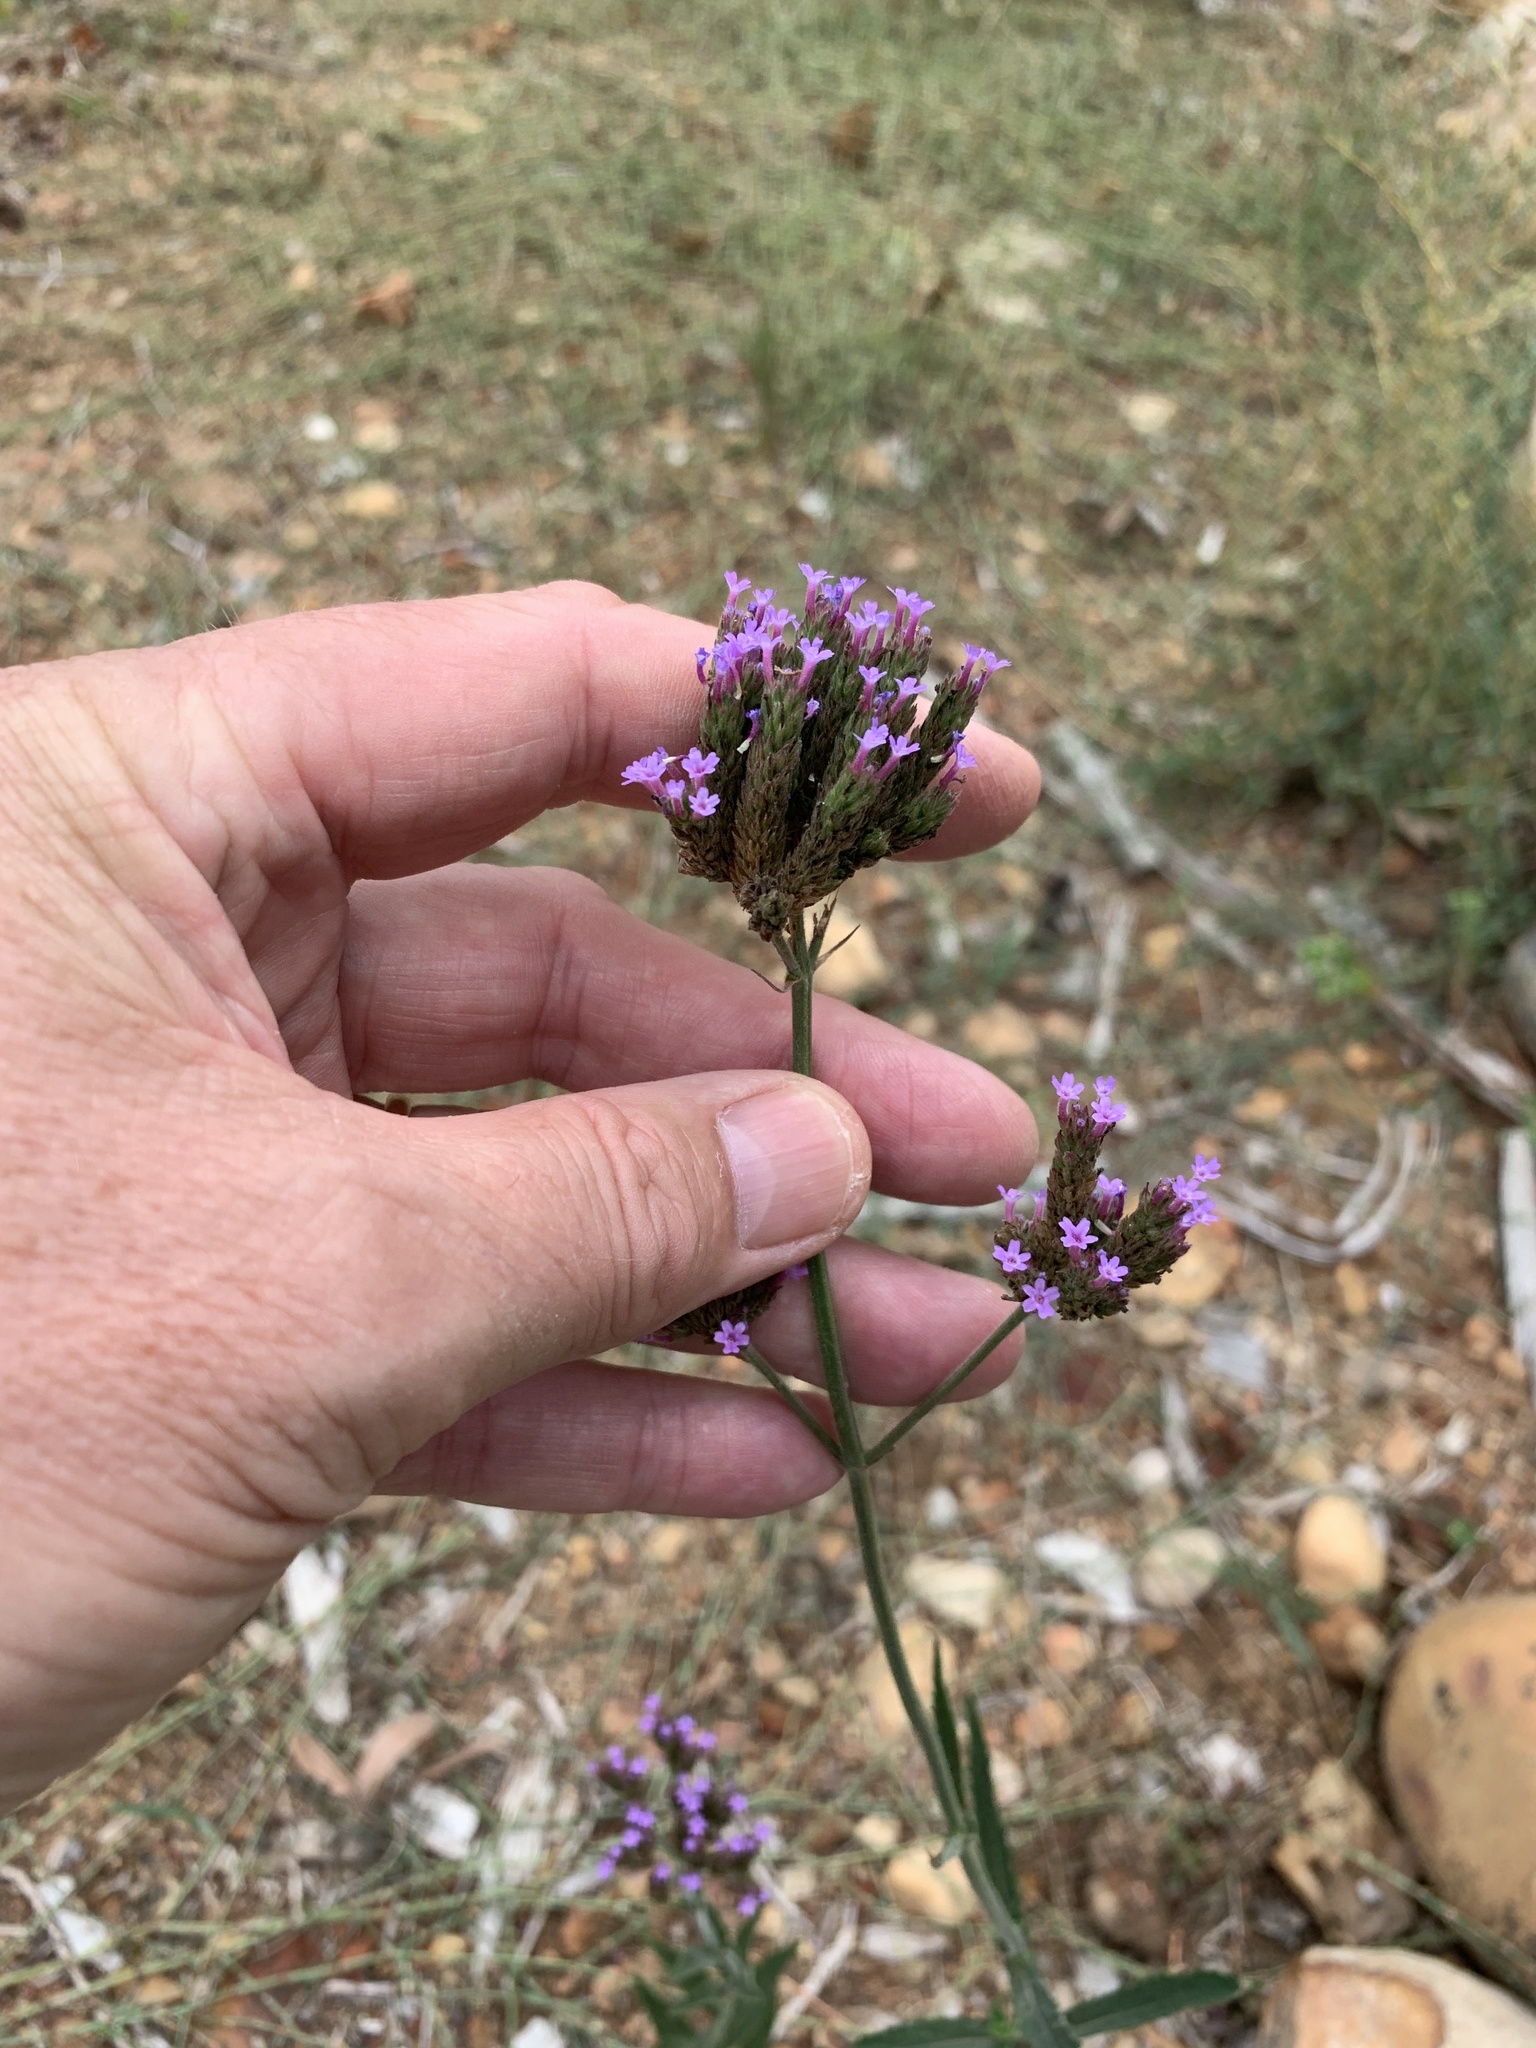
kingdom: Plantae
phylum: Tracheophyta
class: Magnoliopsida
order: Lamiales
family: Verbenaceae
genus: Verbena
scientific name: Verbena bonariensis
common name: Purpletop vervain
